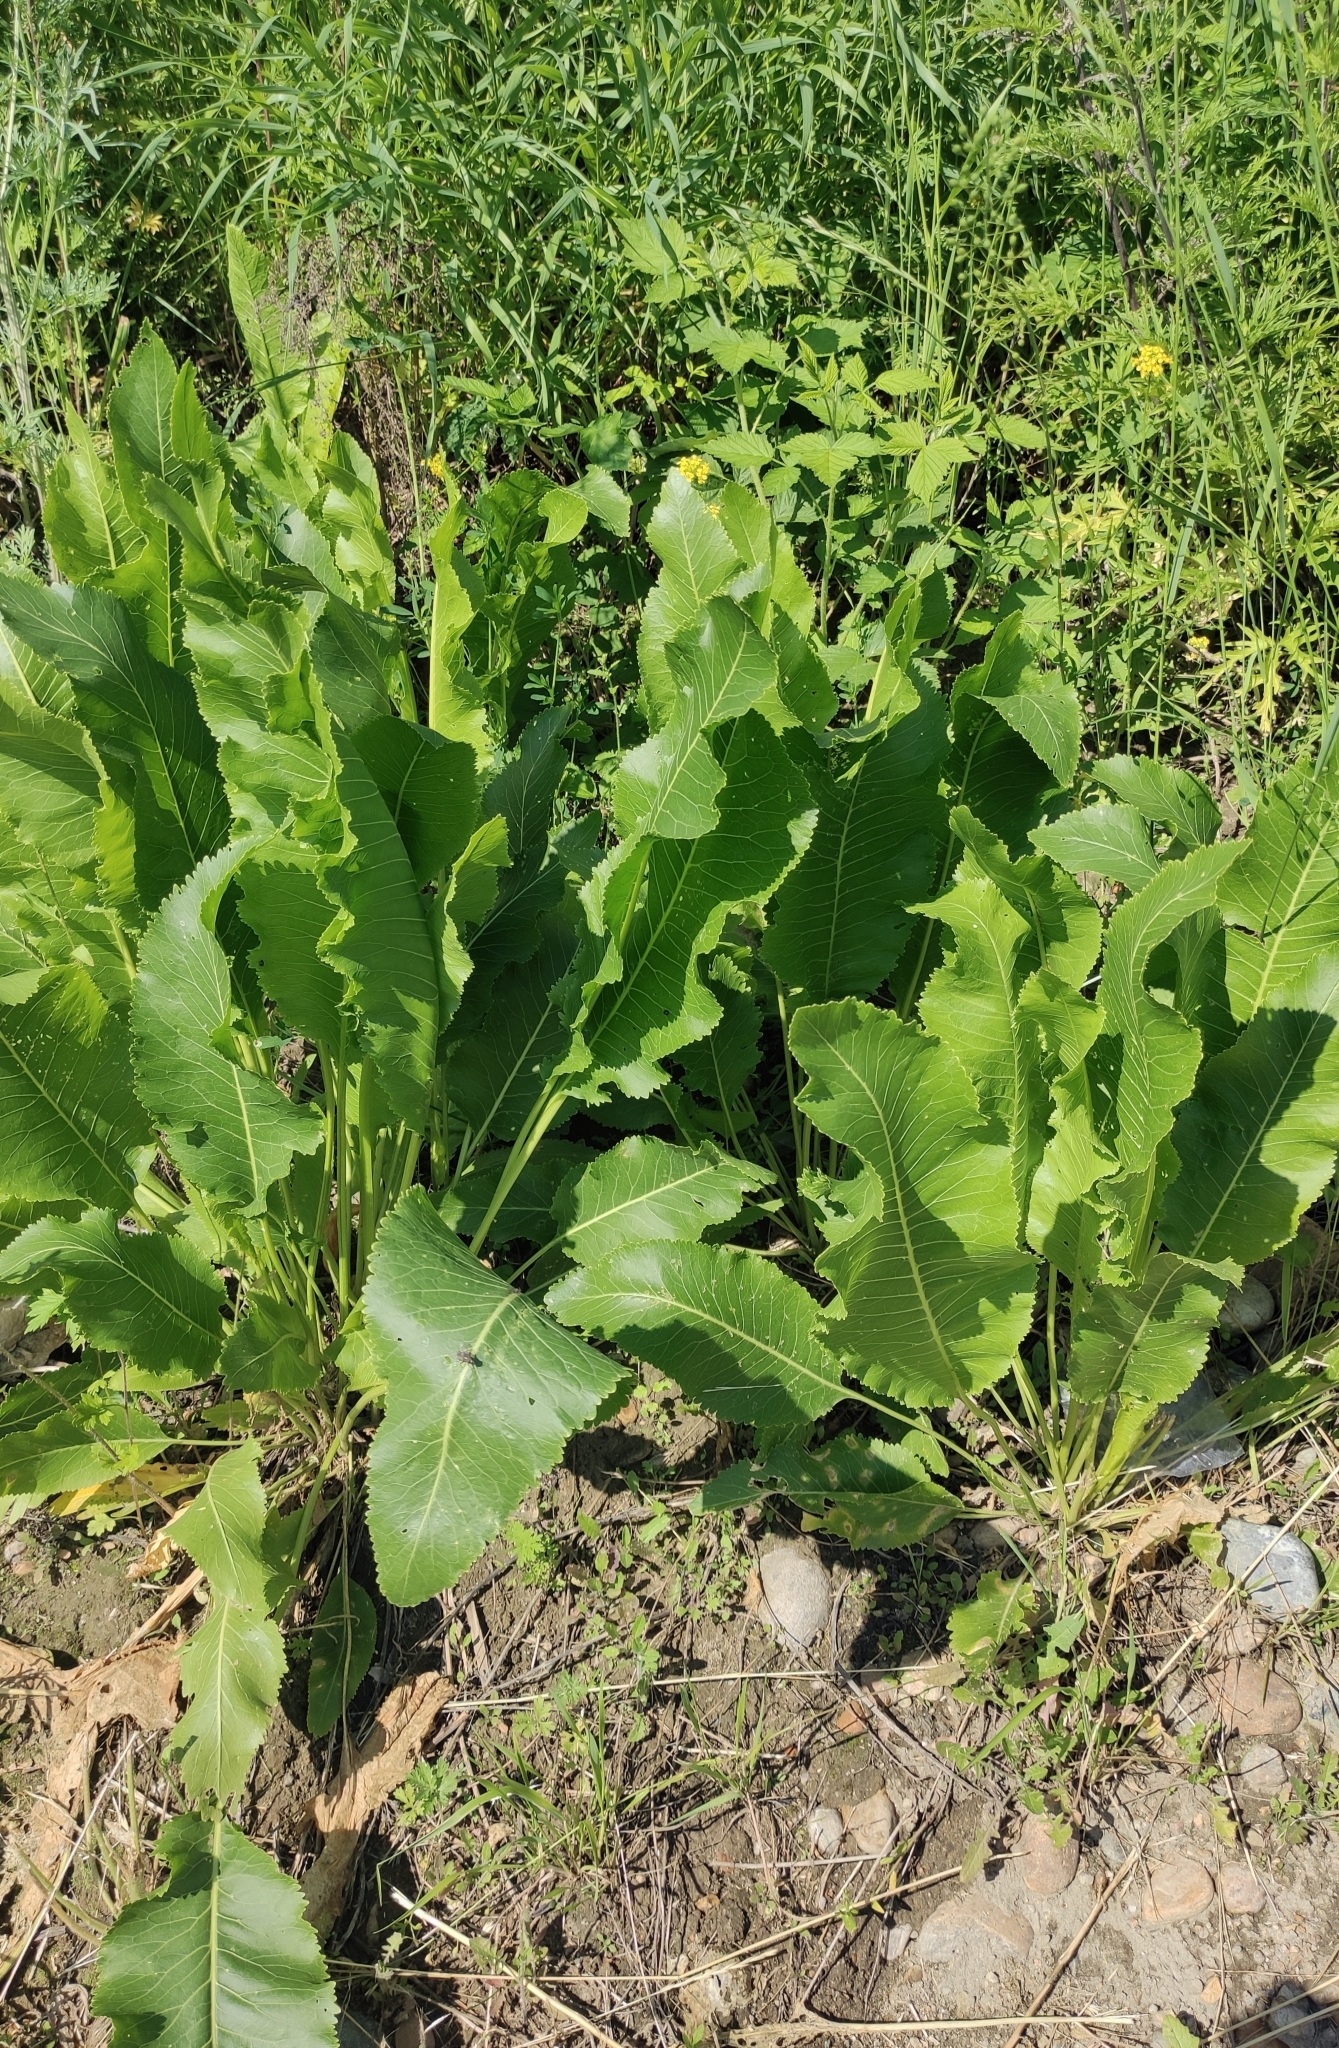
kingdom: Plantae
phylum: Tracheophyta
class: Magnoliopsida
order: Brassicales
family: Brassicaceae
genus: Armoracia
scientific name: Armoracia rusticana
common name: Horseradish
